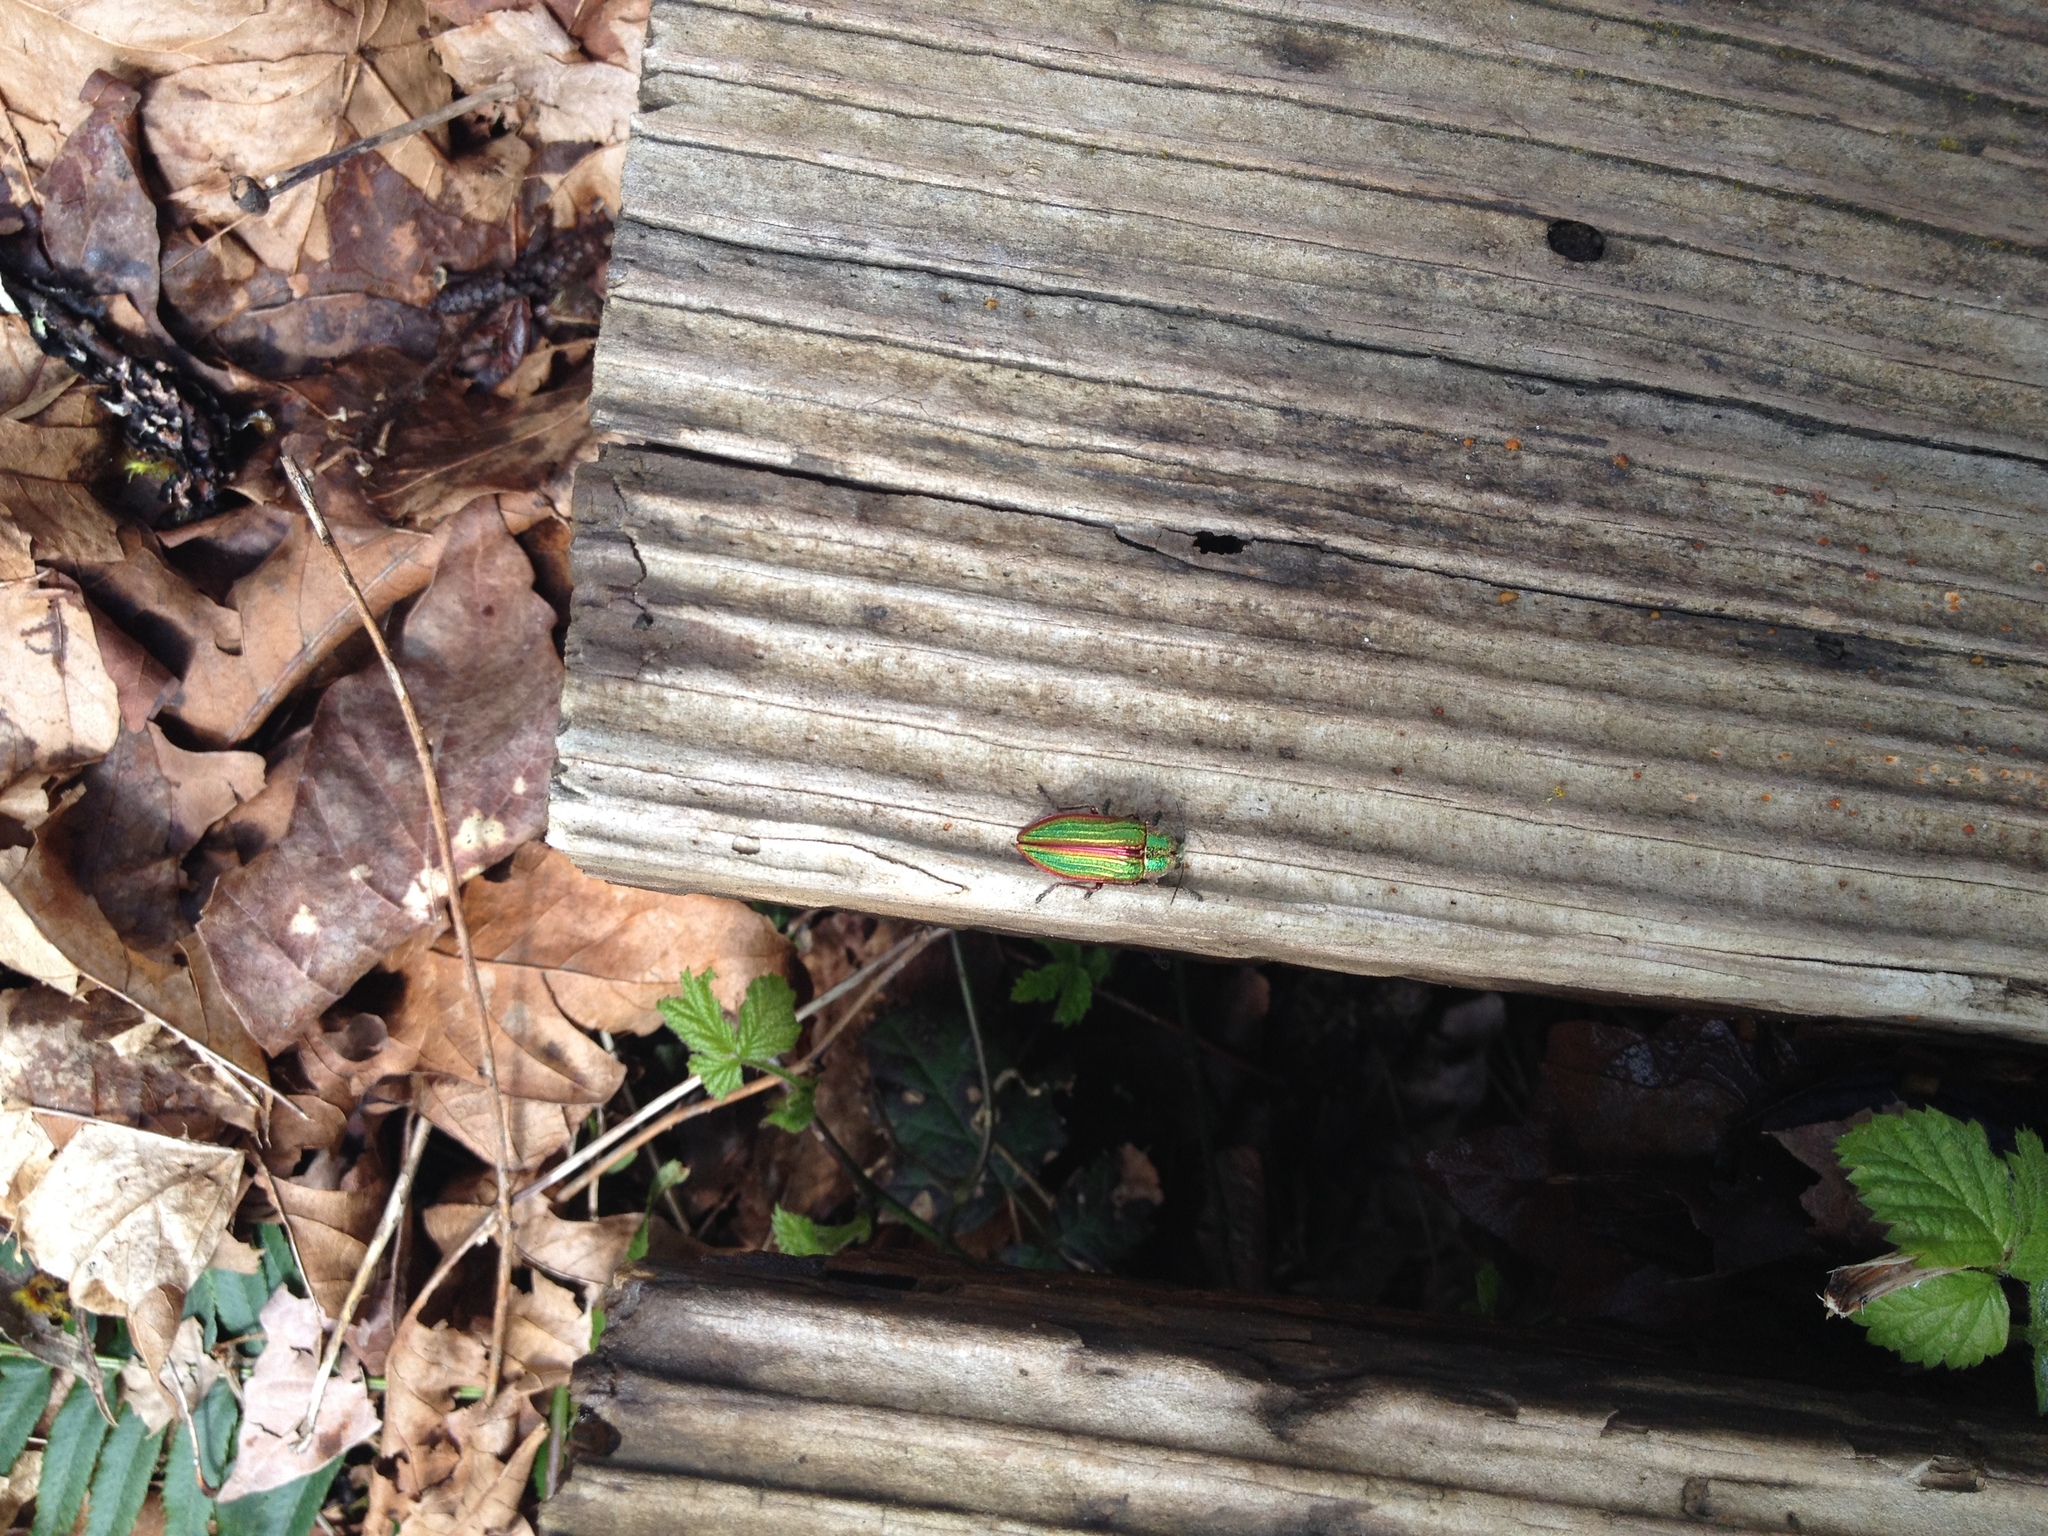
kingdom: Animalia
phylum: Arthropoda
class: Insecta
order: Coleoptera
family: Buprestidae
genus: Buprestis
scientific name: Buprestis aurulenta
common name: Golden buprestid
